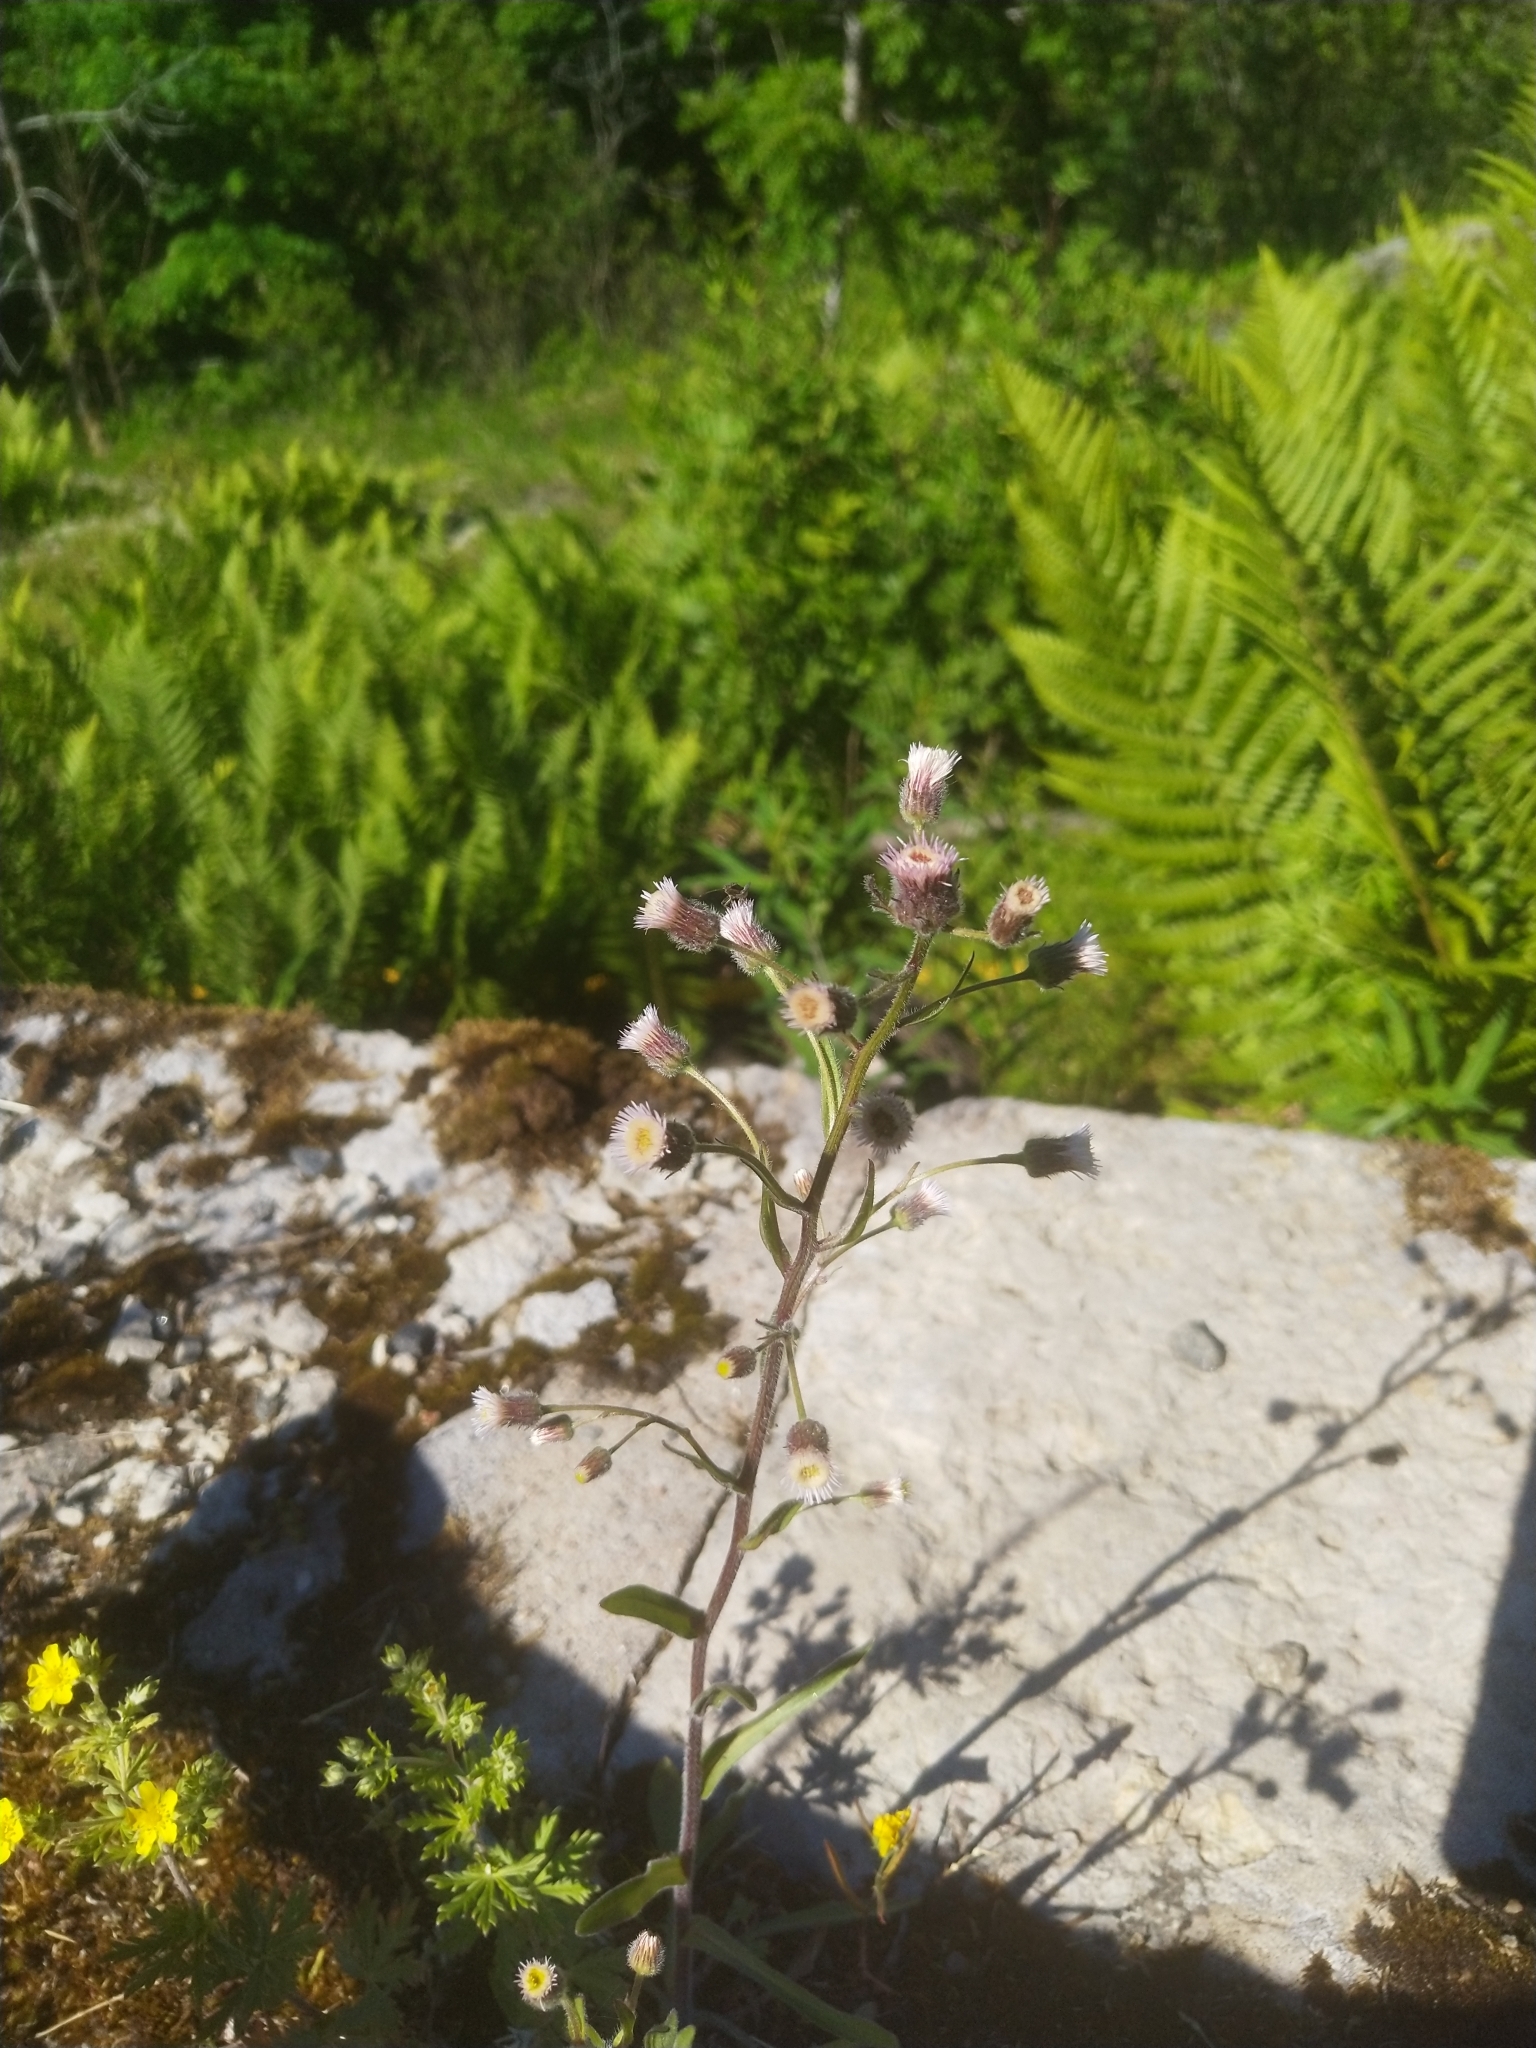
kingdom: Plantae
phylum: Tracheophyta
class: Magnoliopsida
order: Asterales
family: Asteraceae
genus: Erigeron
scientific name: Erigeron acris
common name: Blue fleabane
